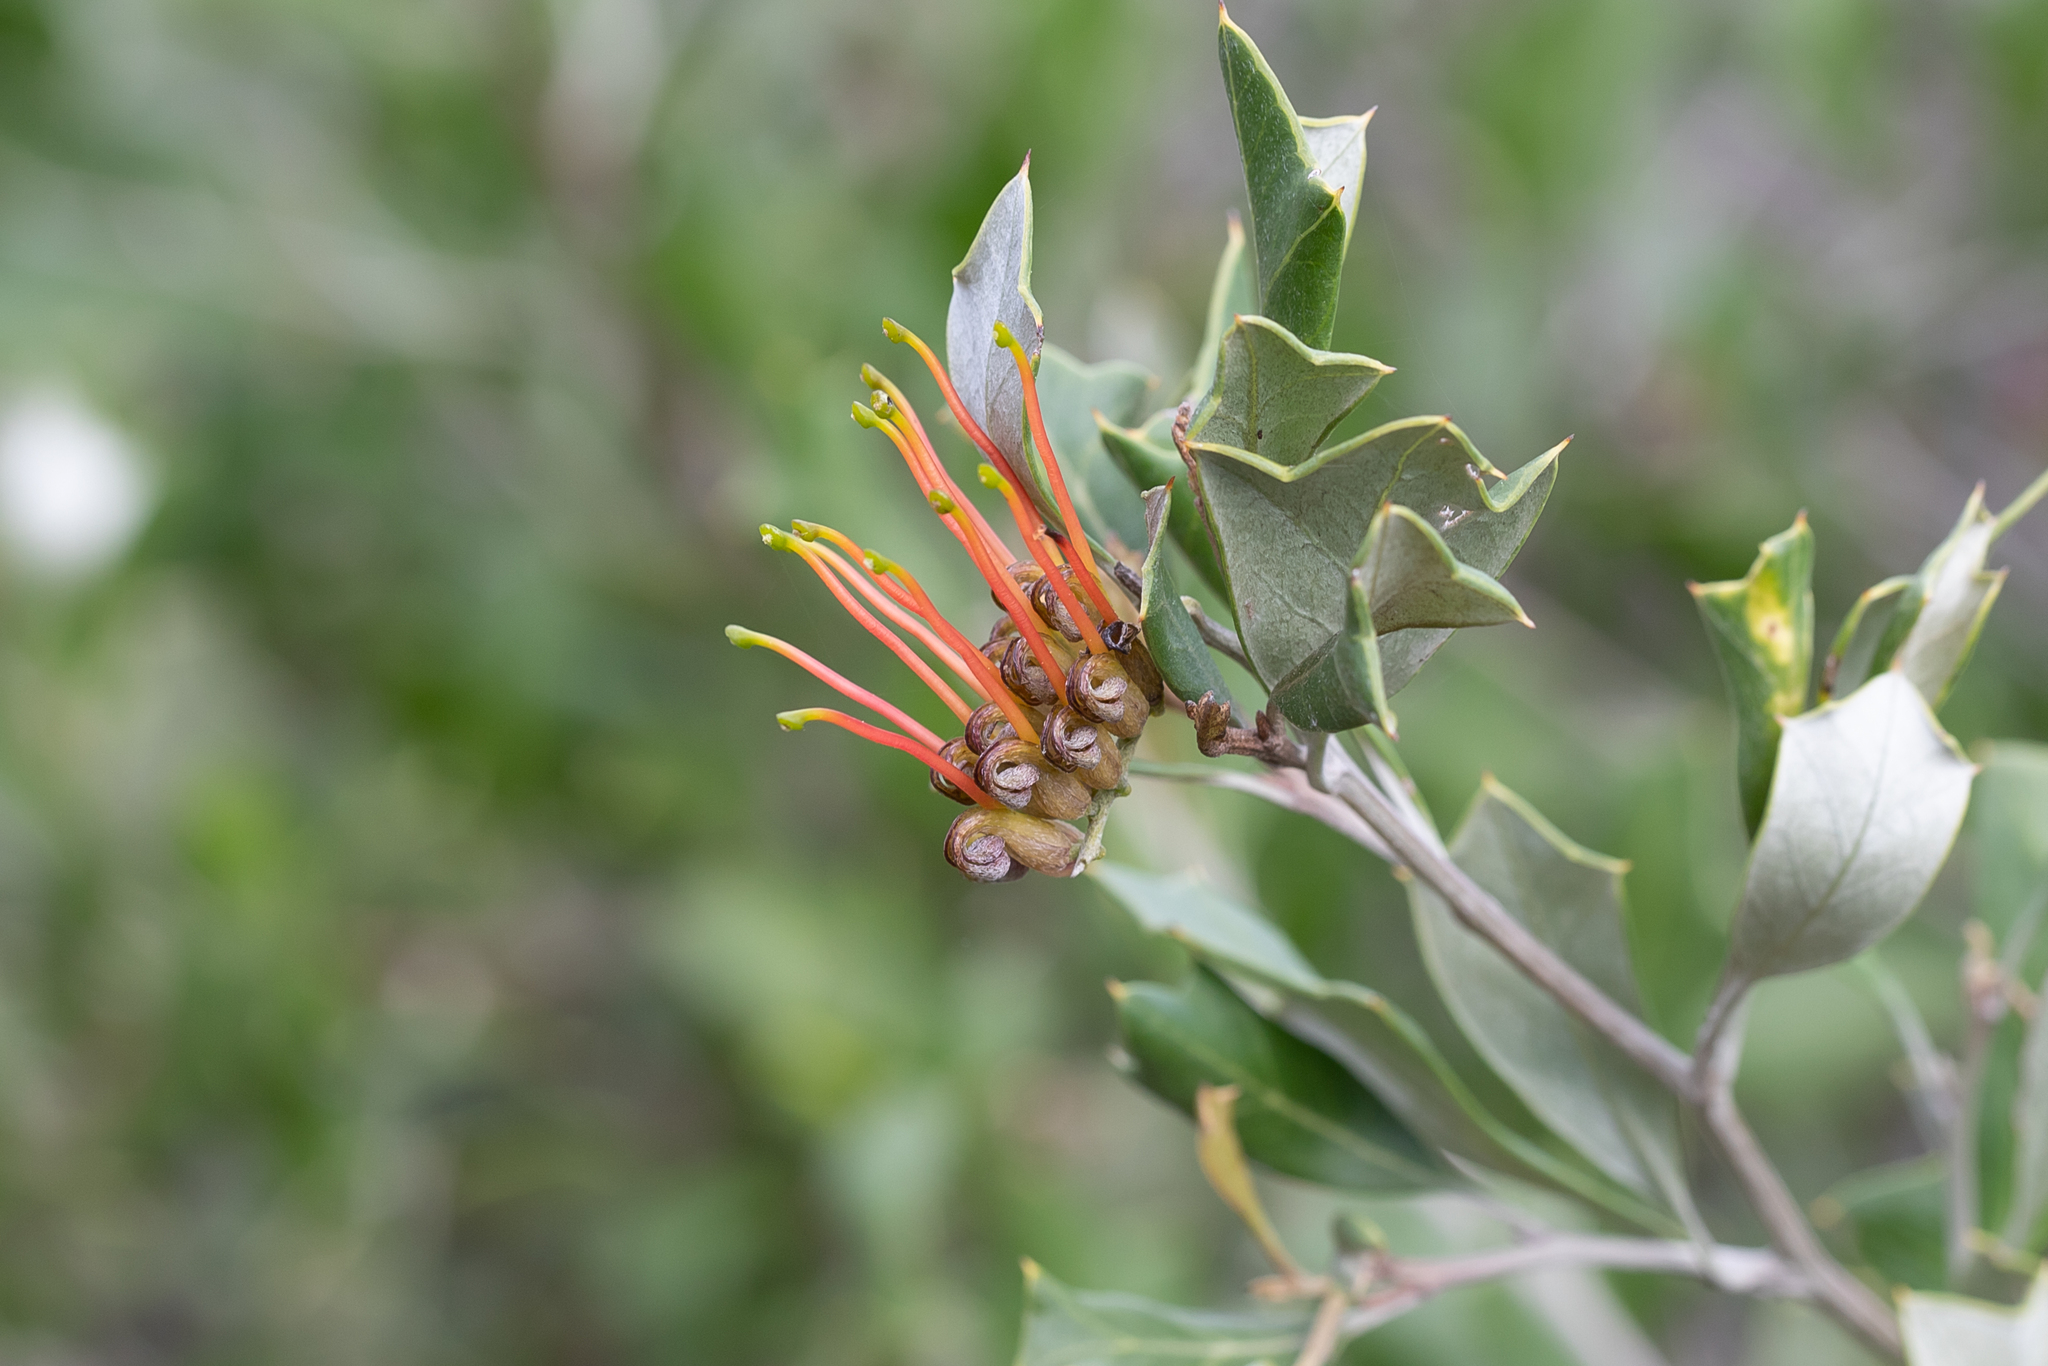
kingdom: Plantae
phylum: Tracheophyta
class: Magnoliopsida
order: Proteales
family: Proteaceae
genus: Grevillea
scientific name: Grevillea ilicifolia
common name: Holly grevillea
